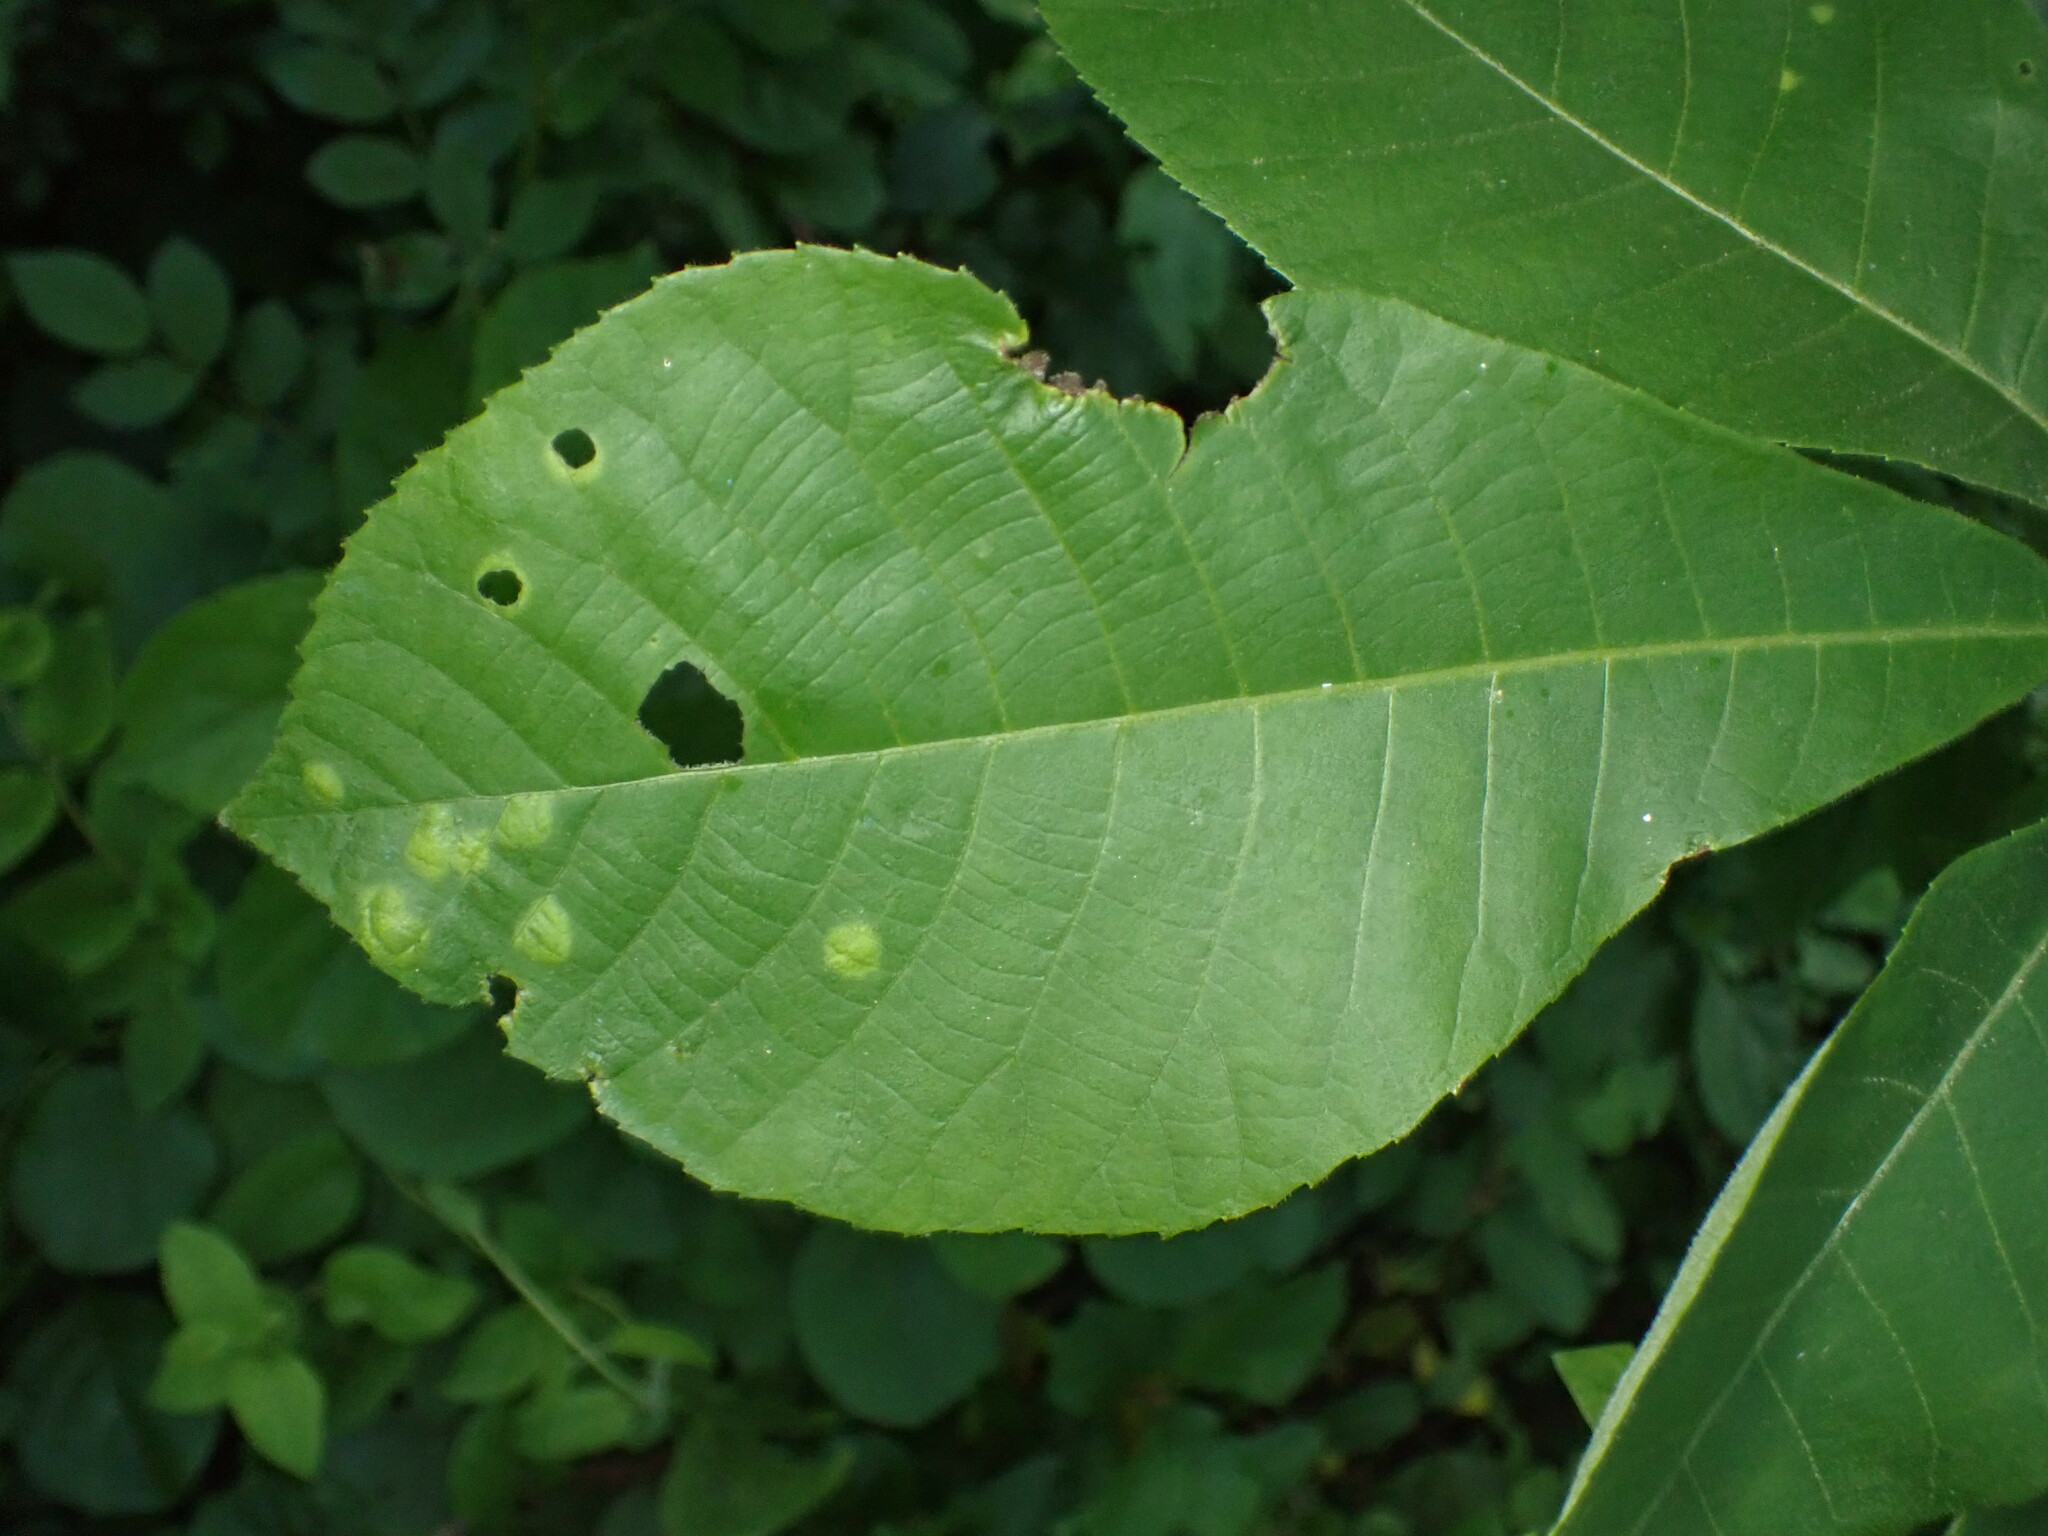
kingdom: Fungi
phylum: Basidiomycota
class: Exobasidiomycetes
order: Microstromatales
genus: Pseudomicrostroma
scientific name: Pseudomicrostroma juglandis
